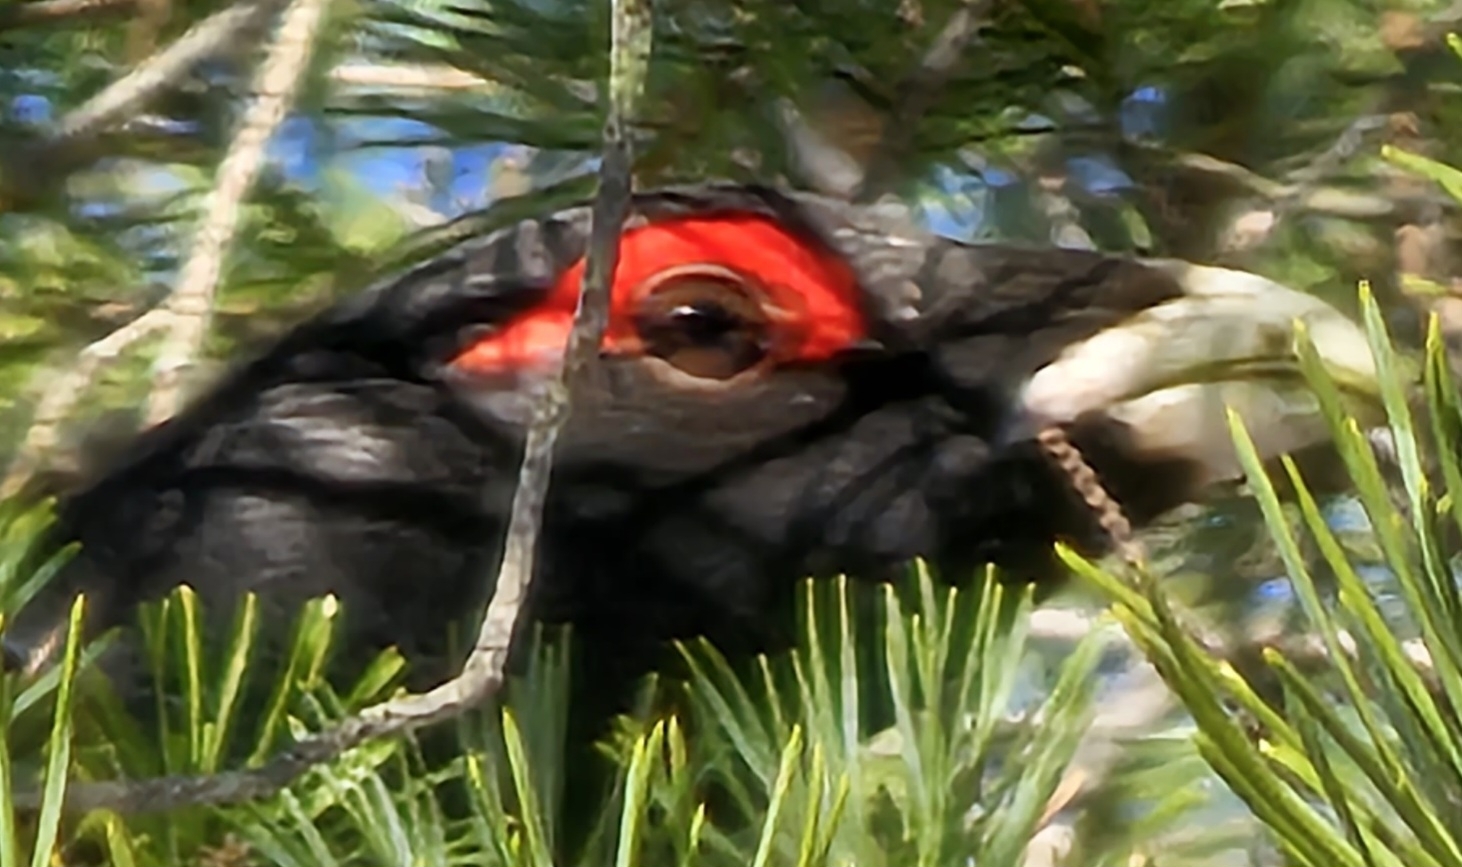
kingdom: Animalia
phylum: Chordata
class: Aves
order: Galliformes
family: Phasianidae
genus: Tetrao
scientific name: Tetrao urogallus
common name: Western capercaillie
